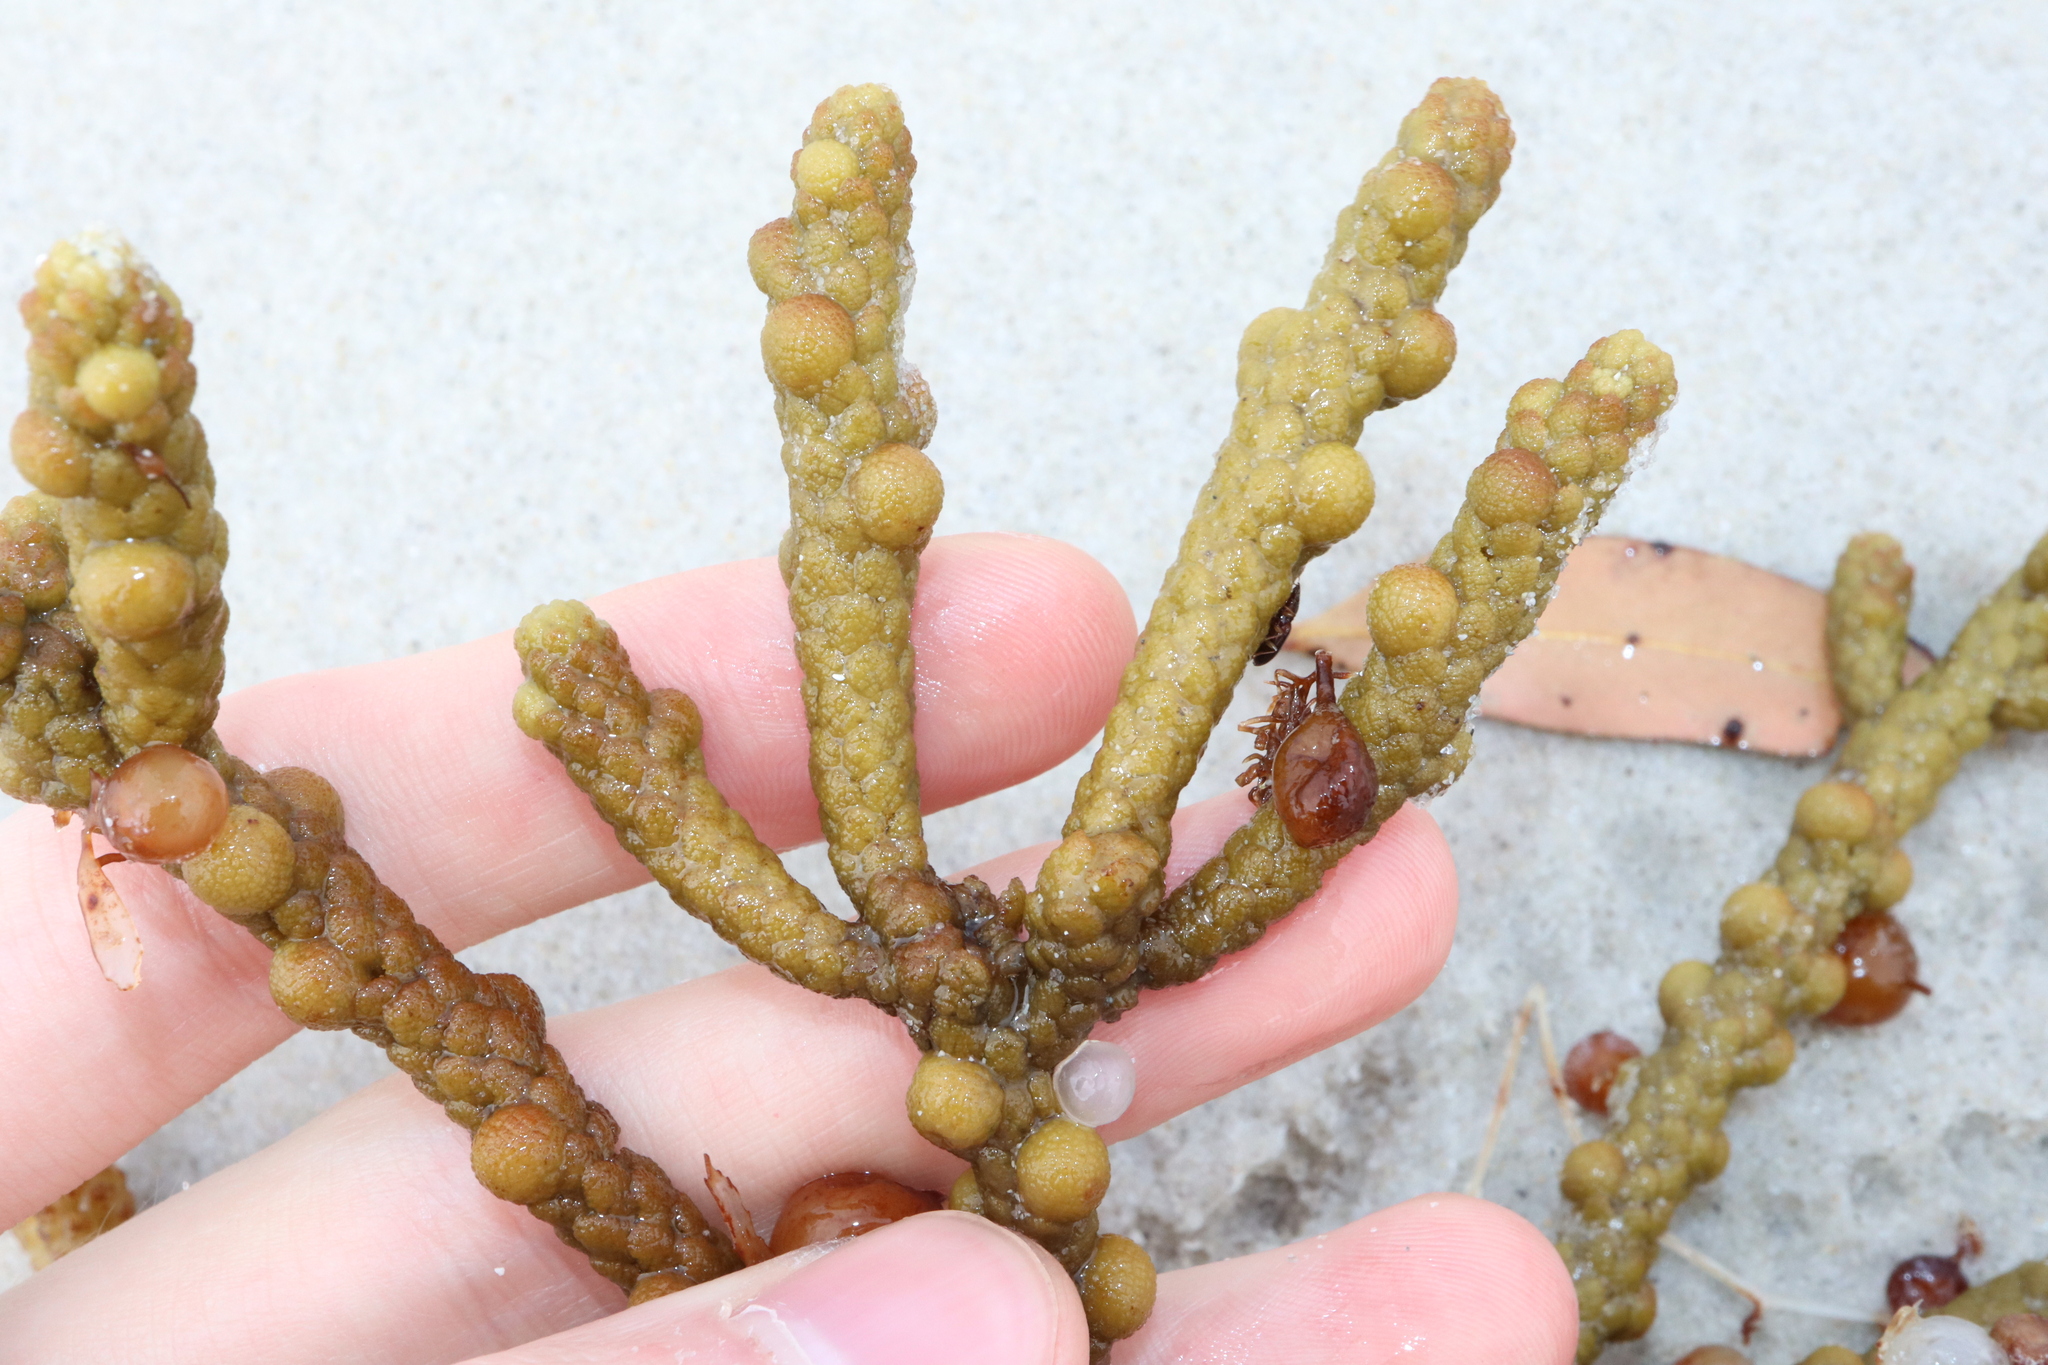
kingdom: Chromista
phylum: Ochrophyta
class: Phaeophyceae
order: Fucales
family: Sargassaceae
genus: Scaberia
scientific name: Scaberia agardhii
